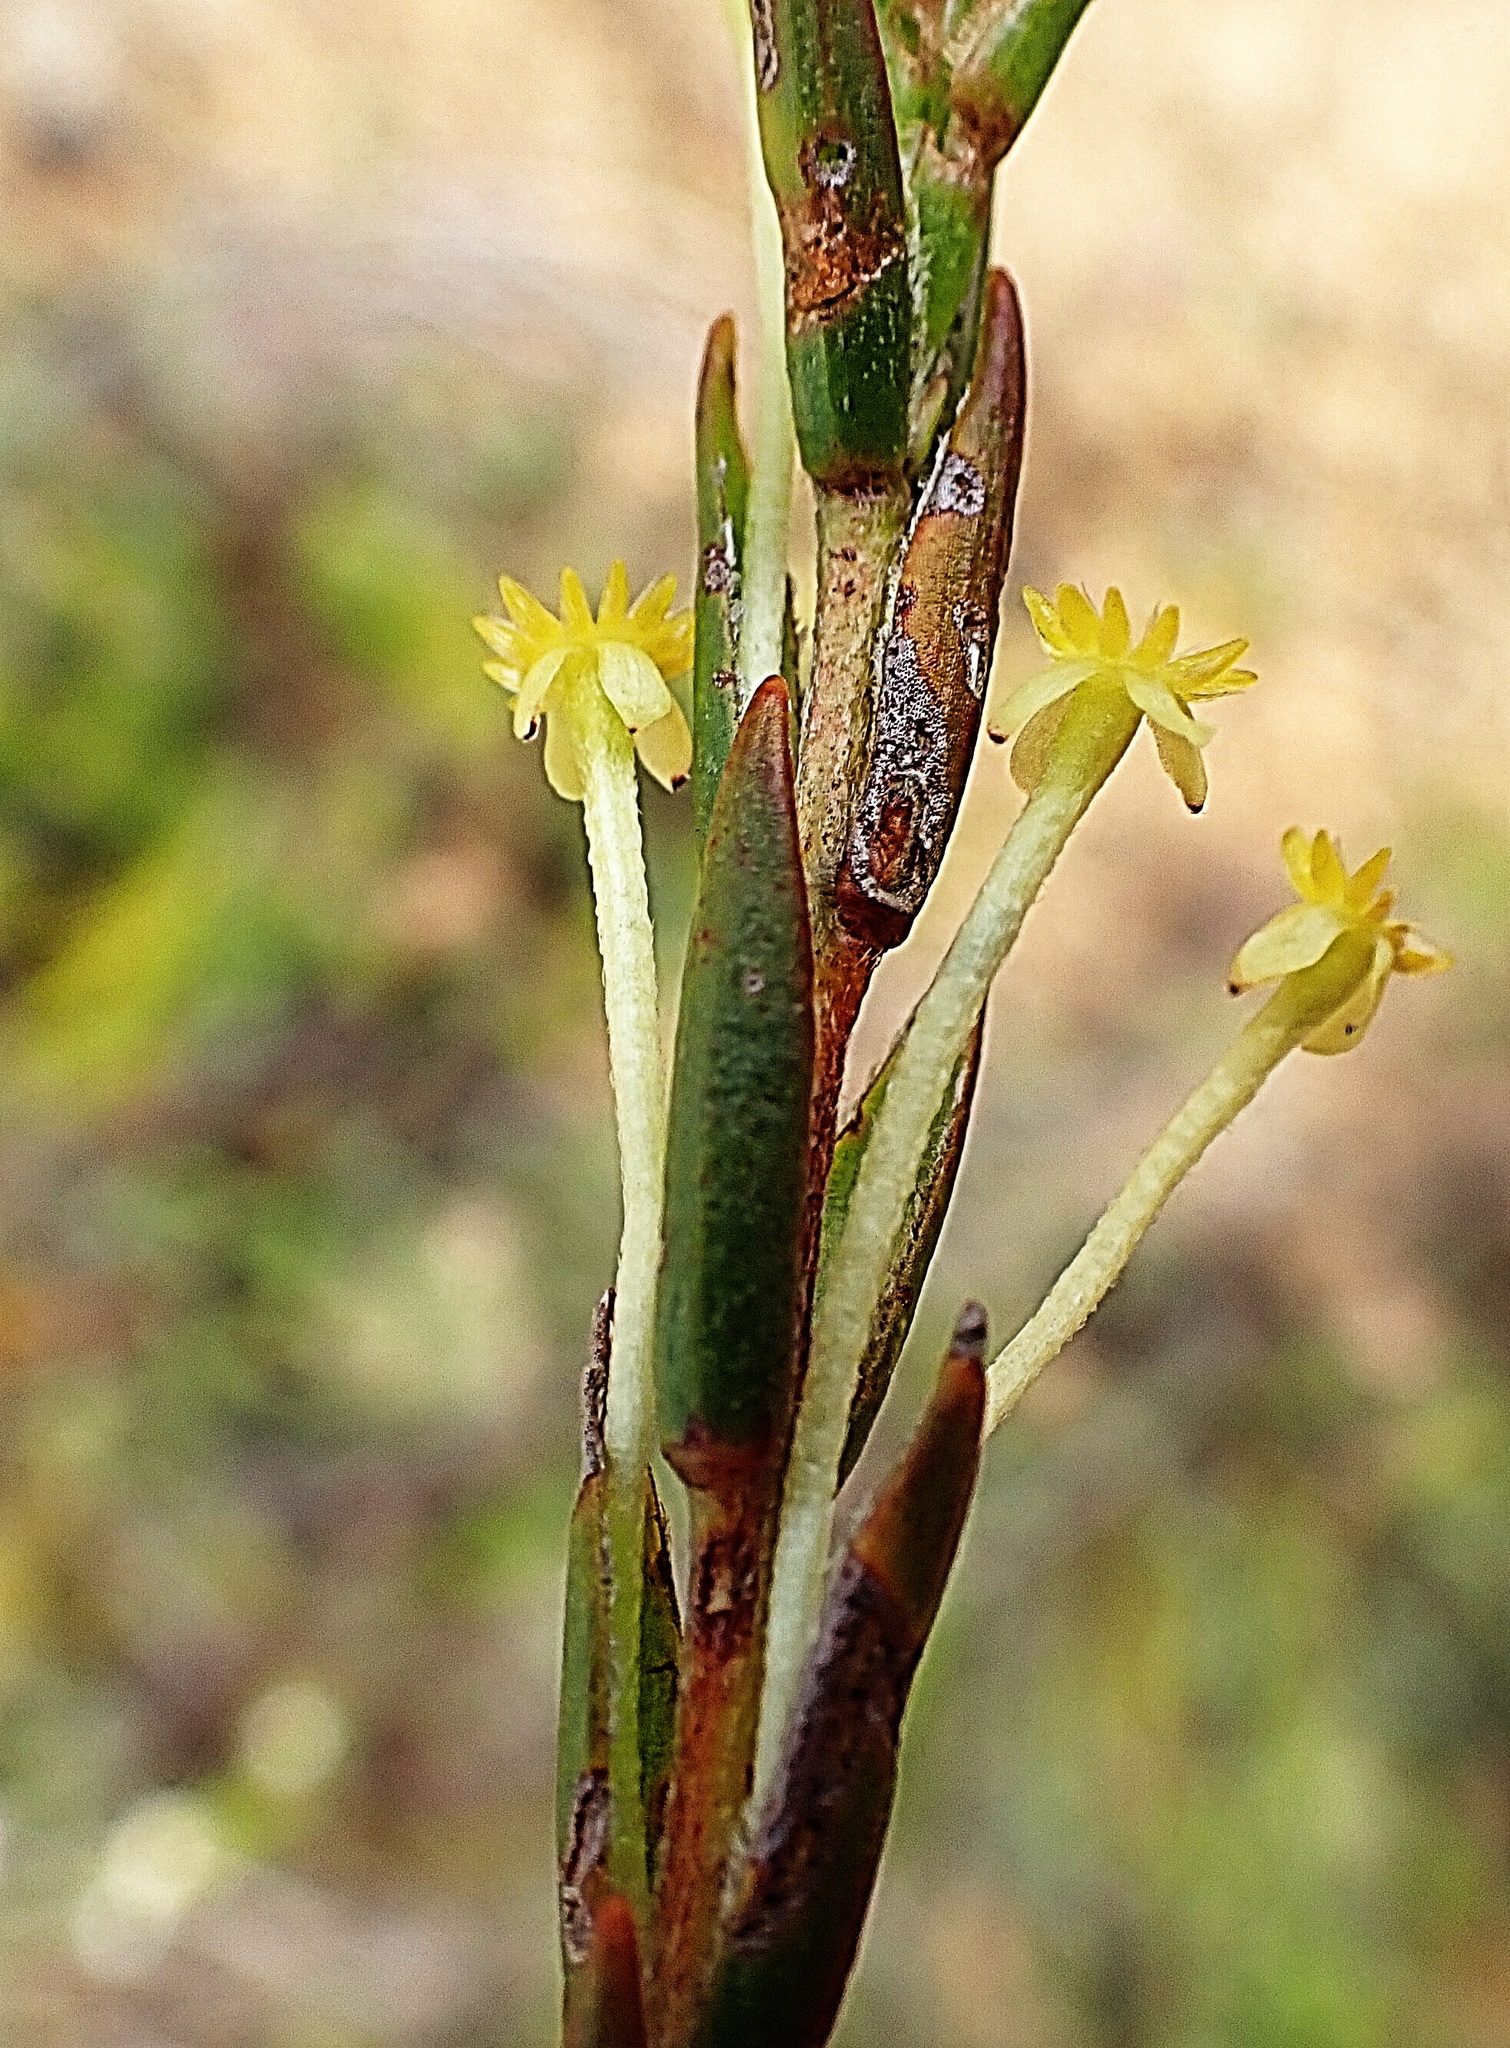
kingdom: Plantae
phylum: Tracheophyta
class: Magnoliopsida
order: Malvales
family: Thymelaeaceae
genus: Struthiola
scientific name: Struthiola garciana
